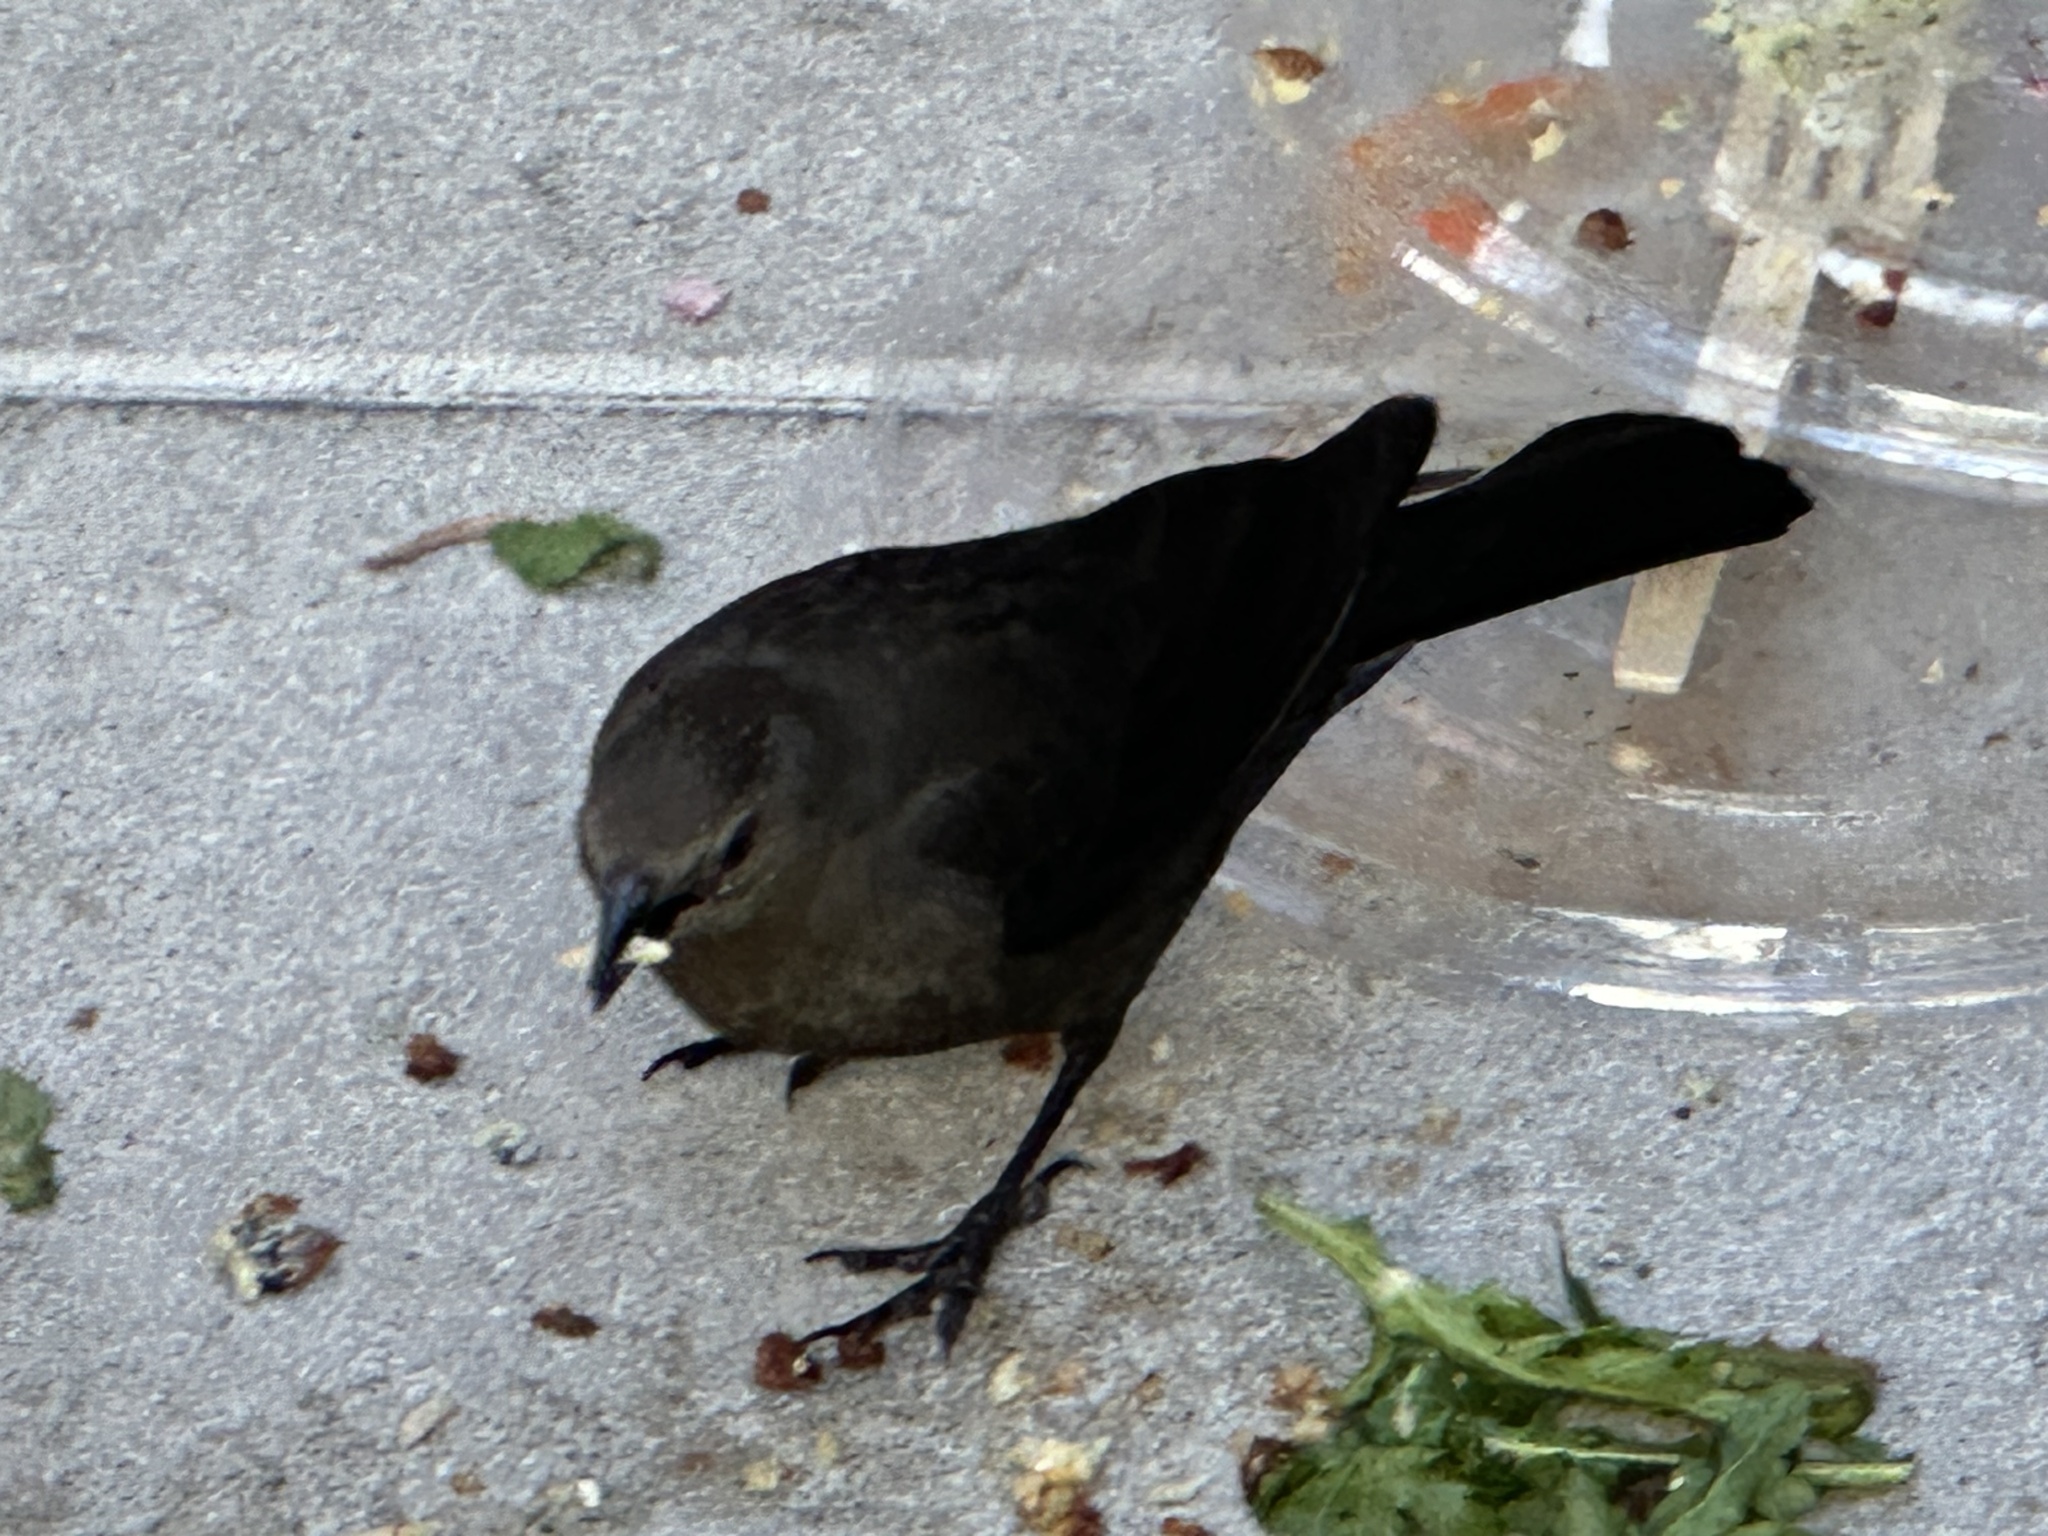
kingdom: Animalia
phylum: Chordata
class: Aves
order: Passeriformes
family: Icteridae
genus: Euphagus
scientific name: Euphagus cyanocephalus
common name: Brewer's blackbird
